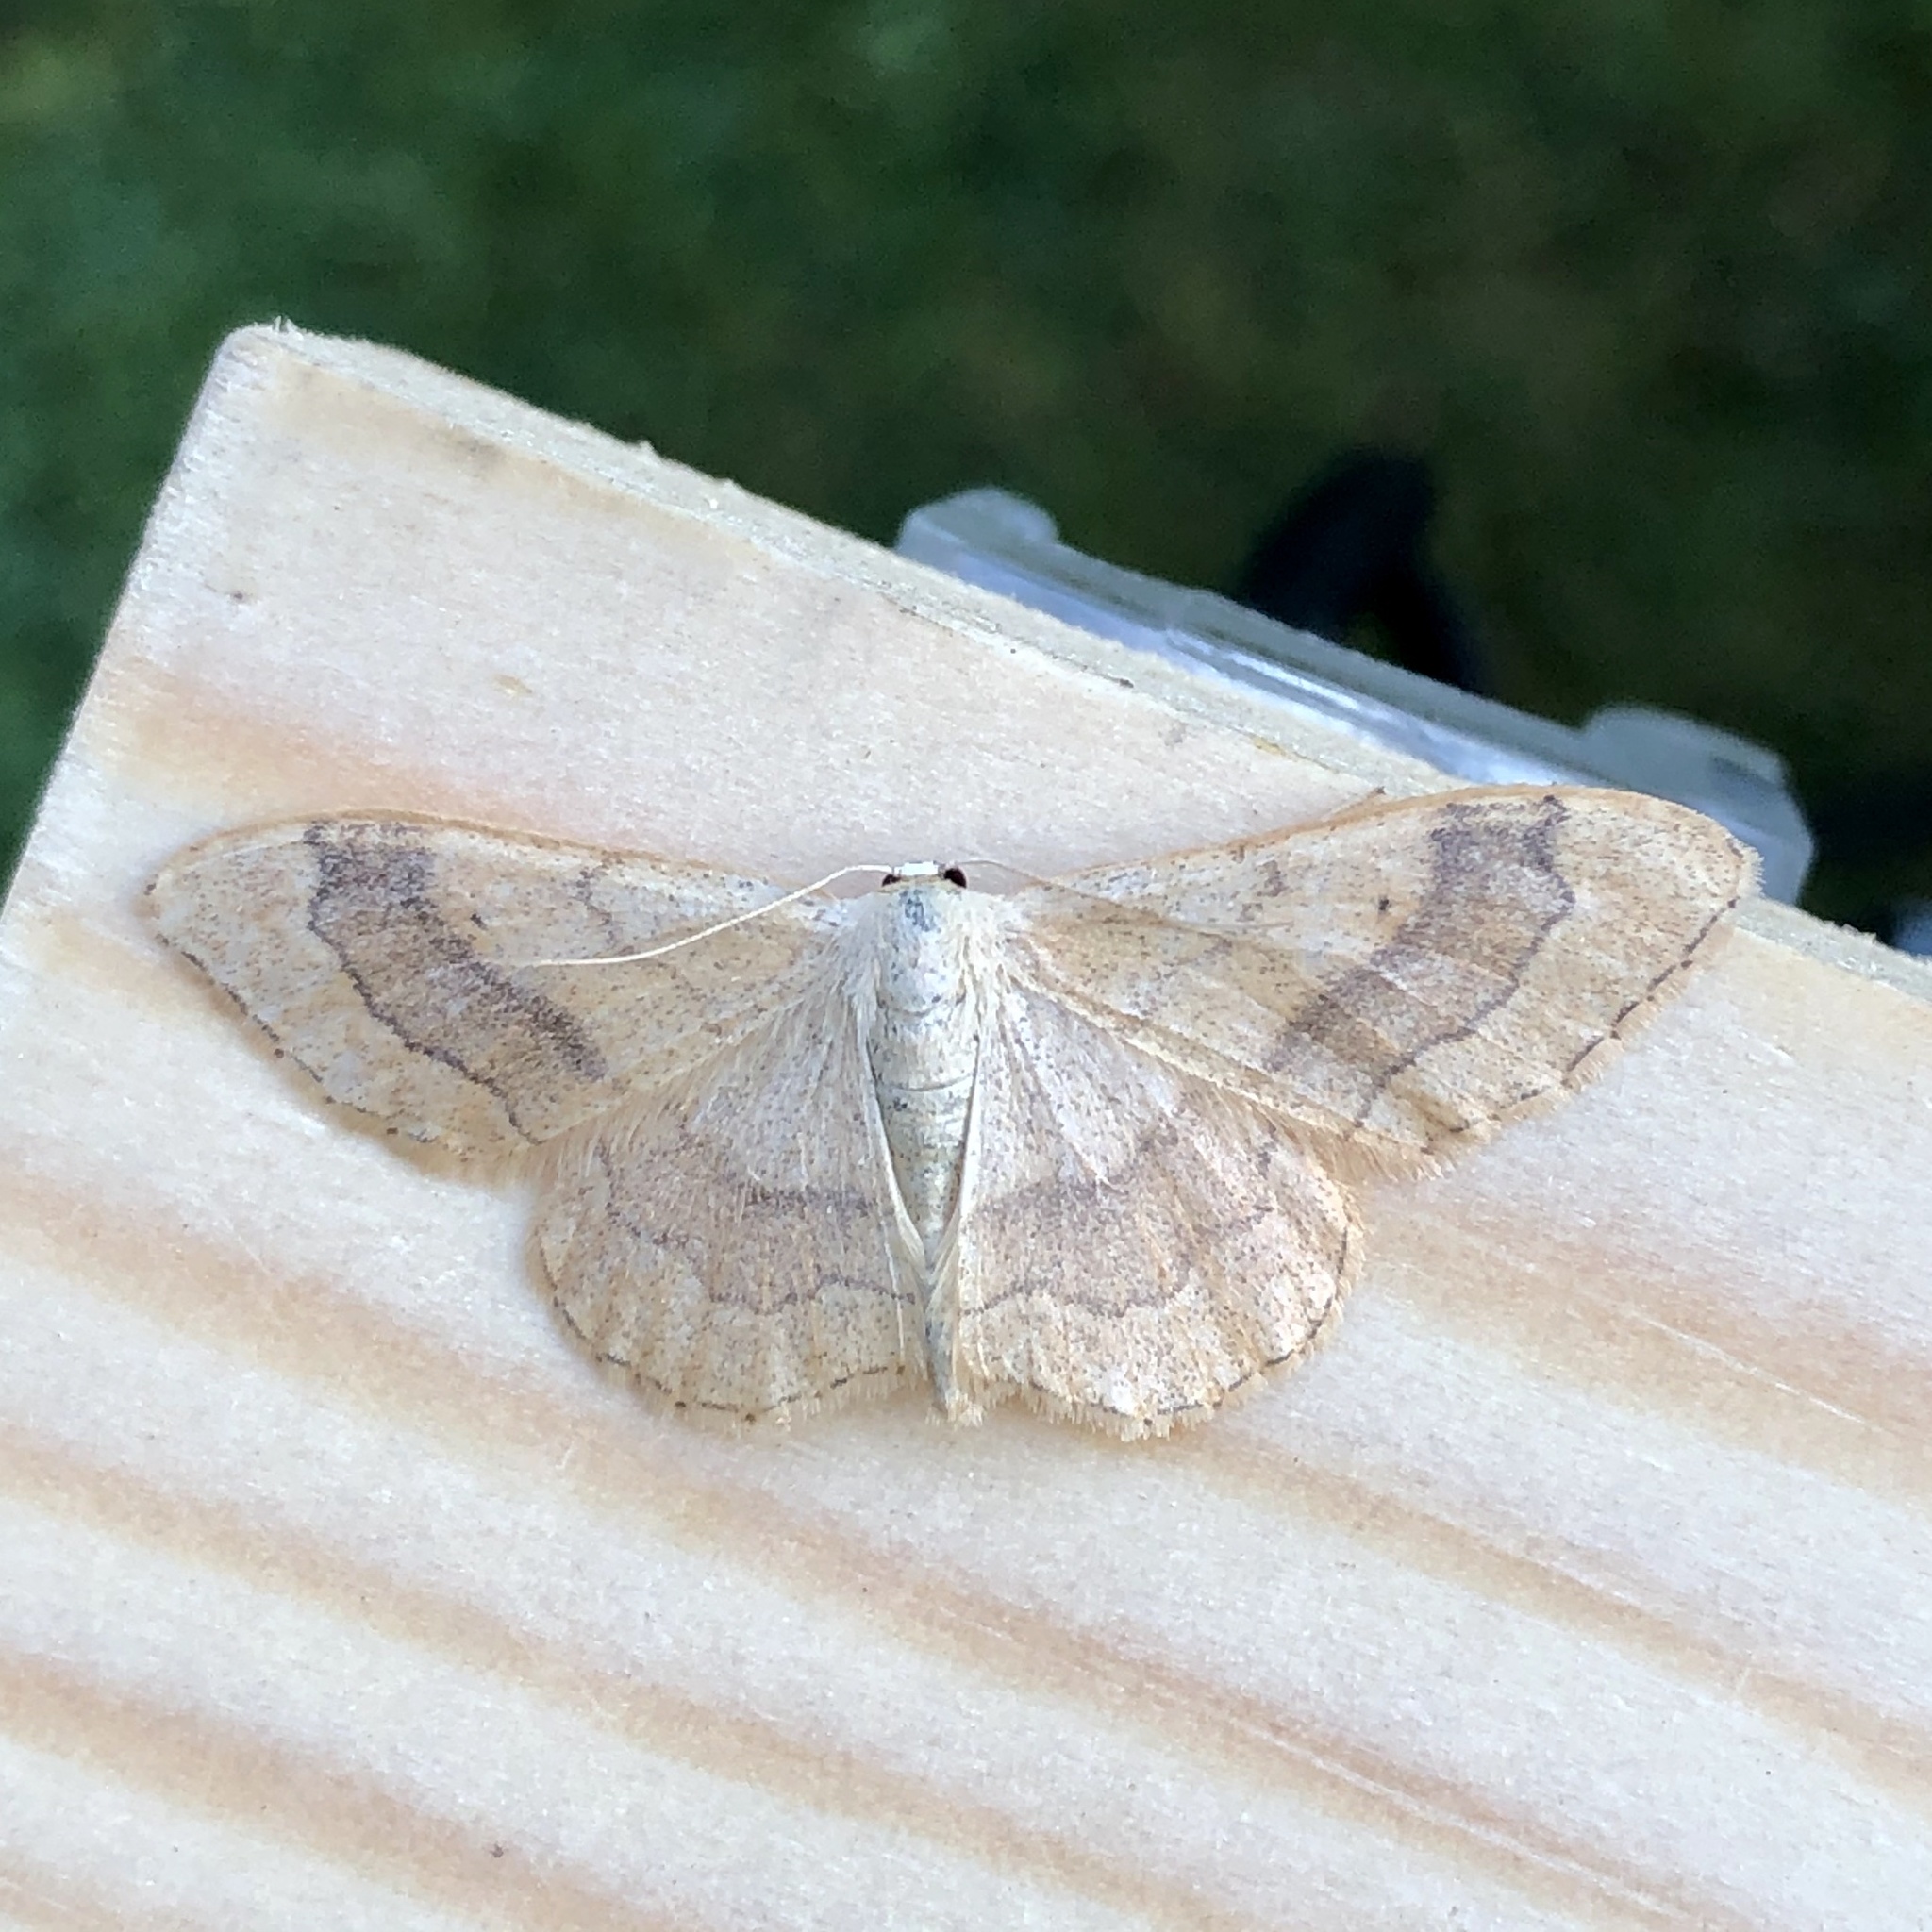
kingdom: Animalia
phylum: Arthropoda
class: Insecta
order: Lepidoptera
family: Geometridae
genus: Idaea
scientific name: Idaea aversata
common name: Riband wave
